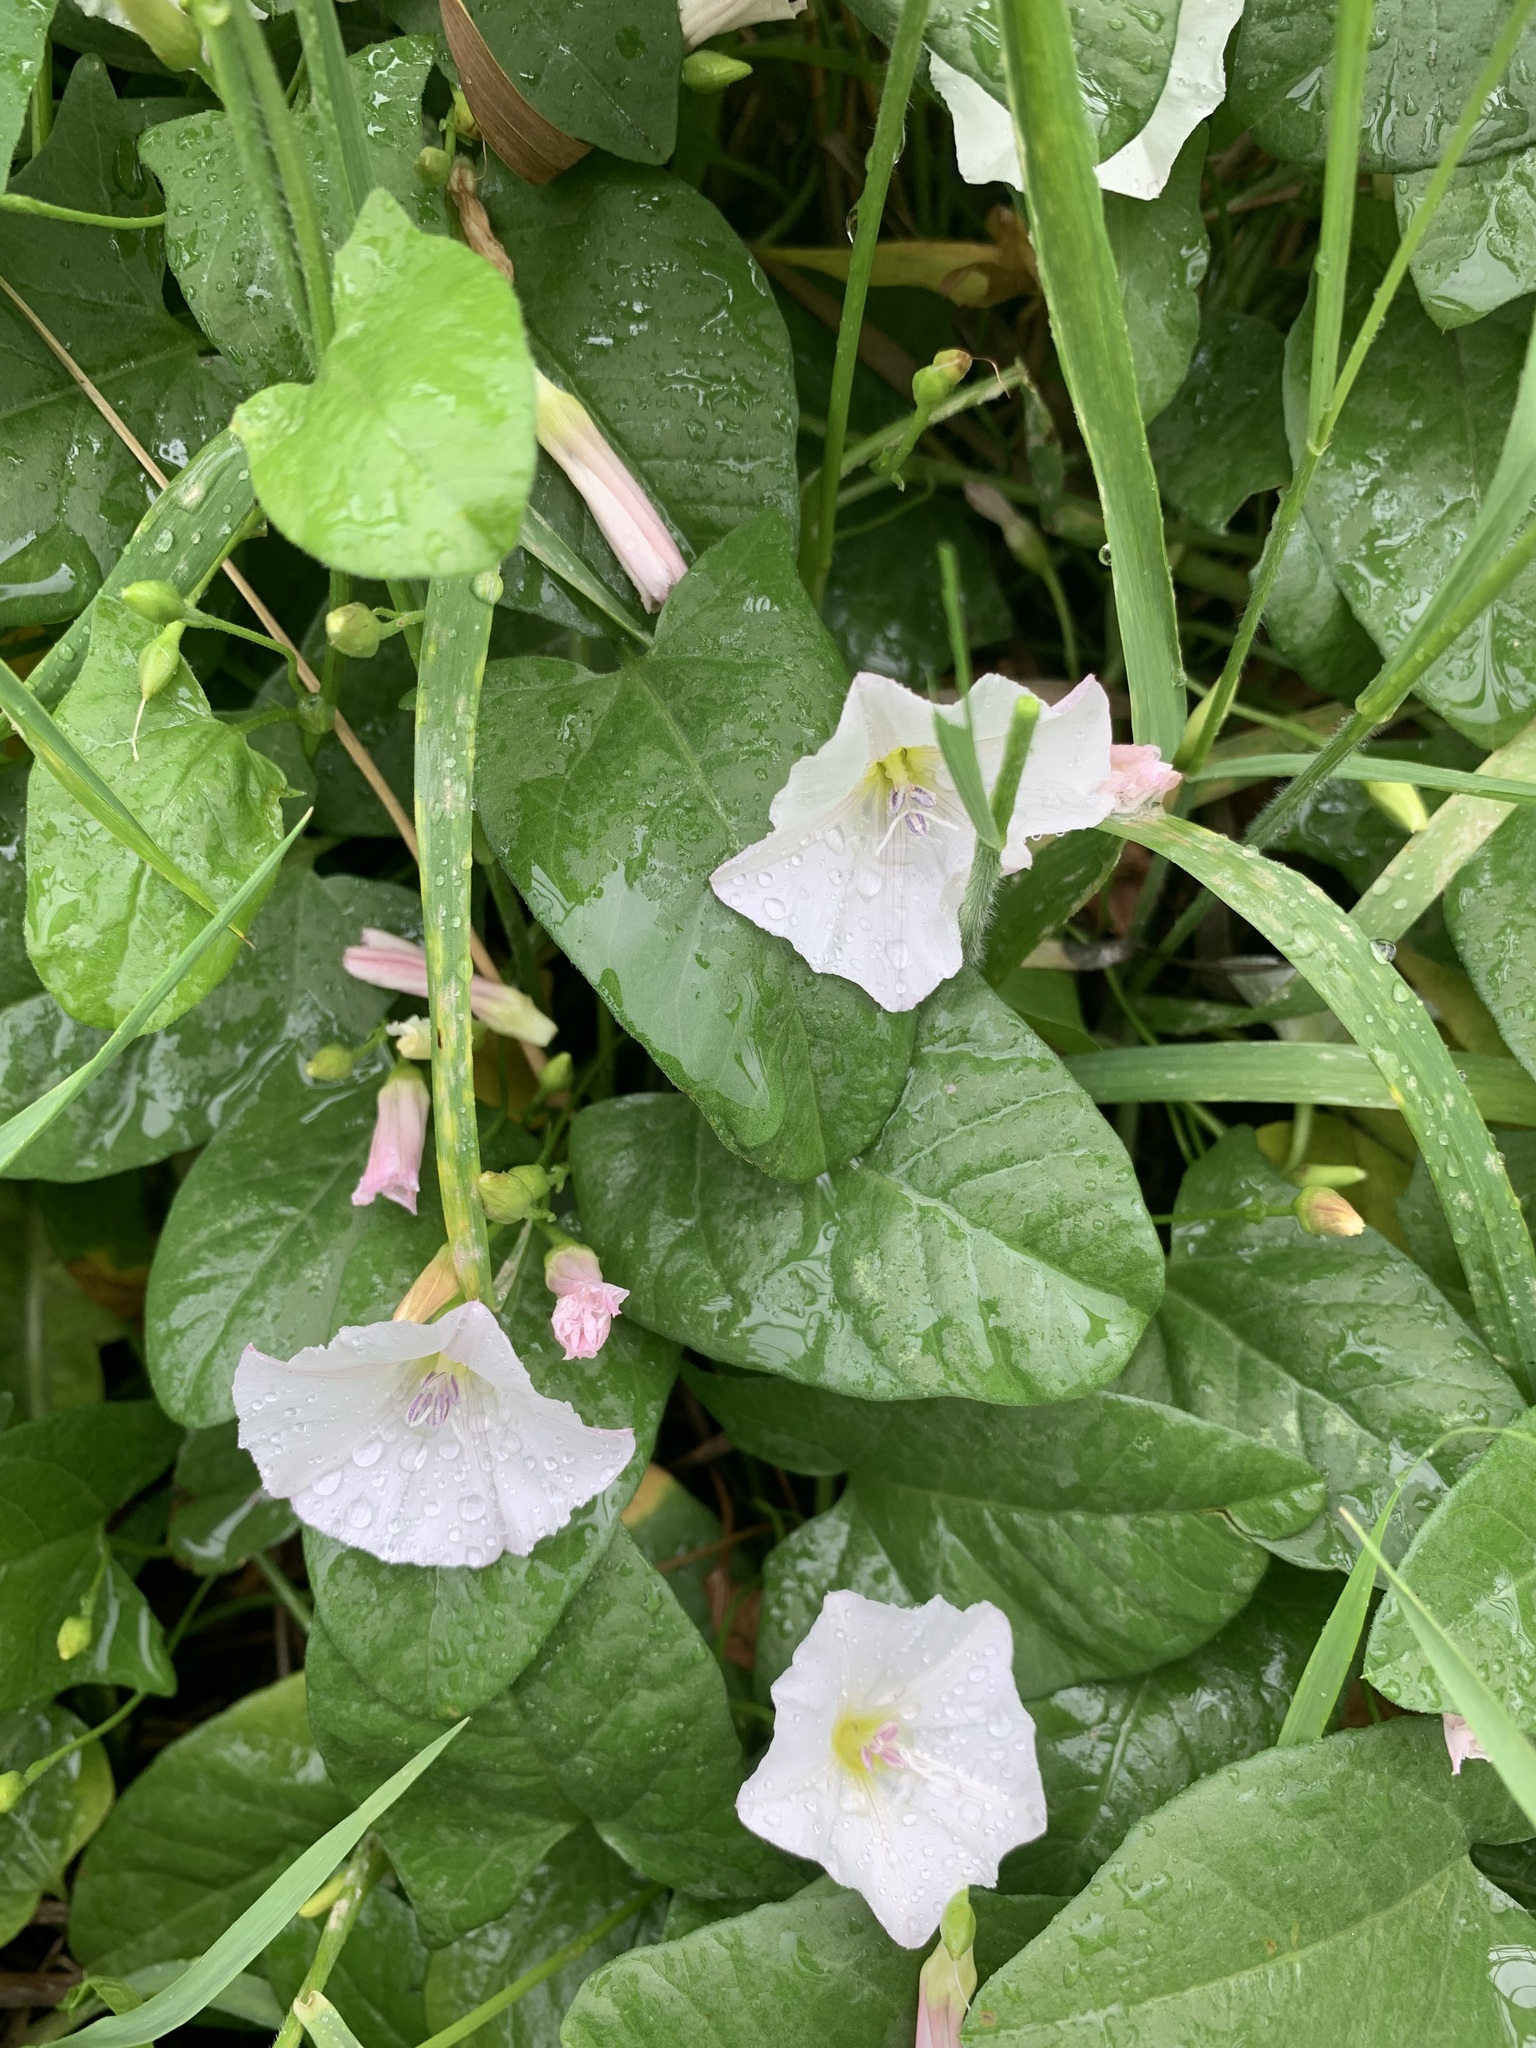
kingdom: Plantae
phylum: Tracheophyta
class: Magnoliopsida
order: Solanales
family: Convolvulaceae
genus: Convolvulus
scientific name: Convolvulus arvensis
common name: Field bindweed
